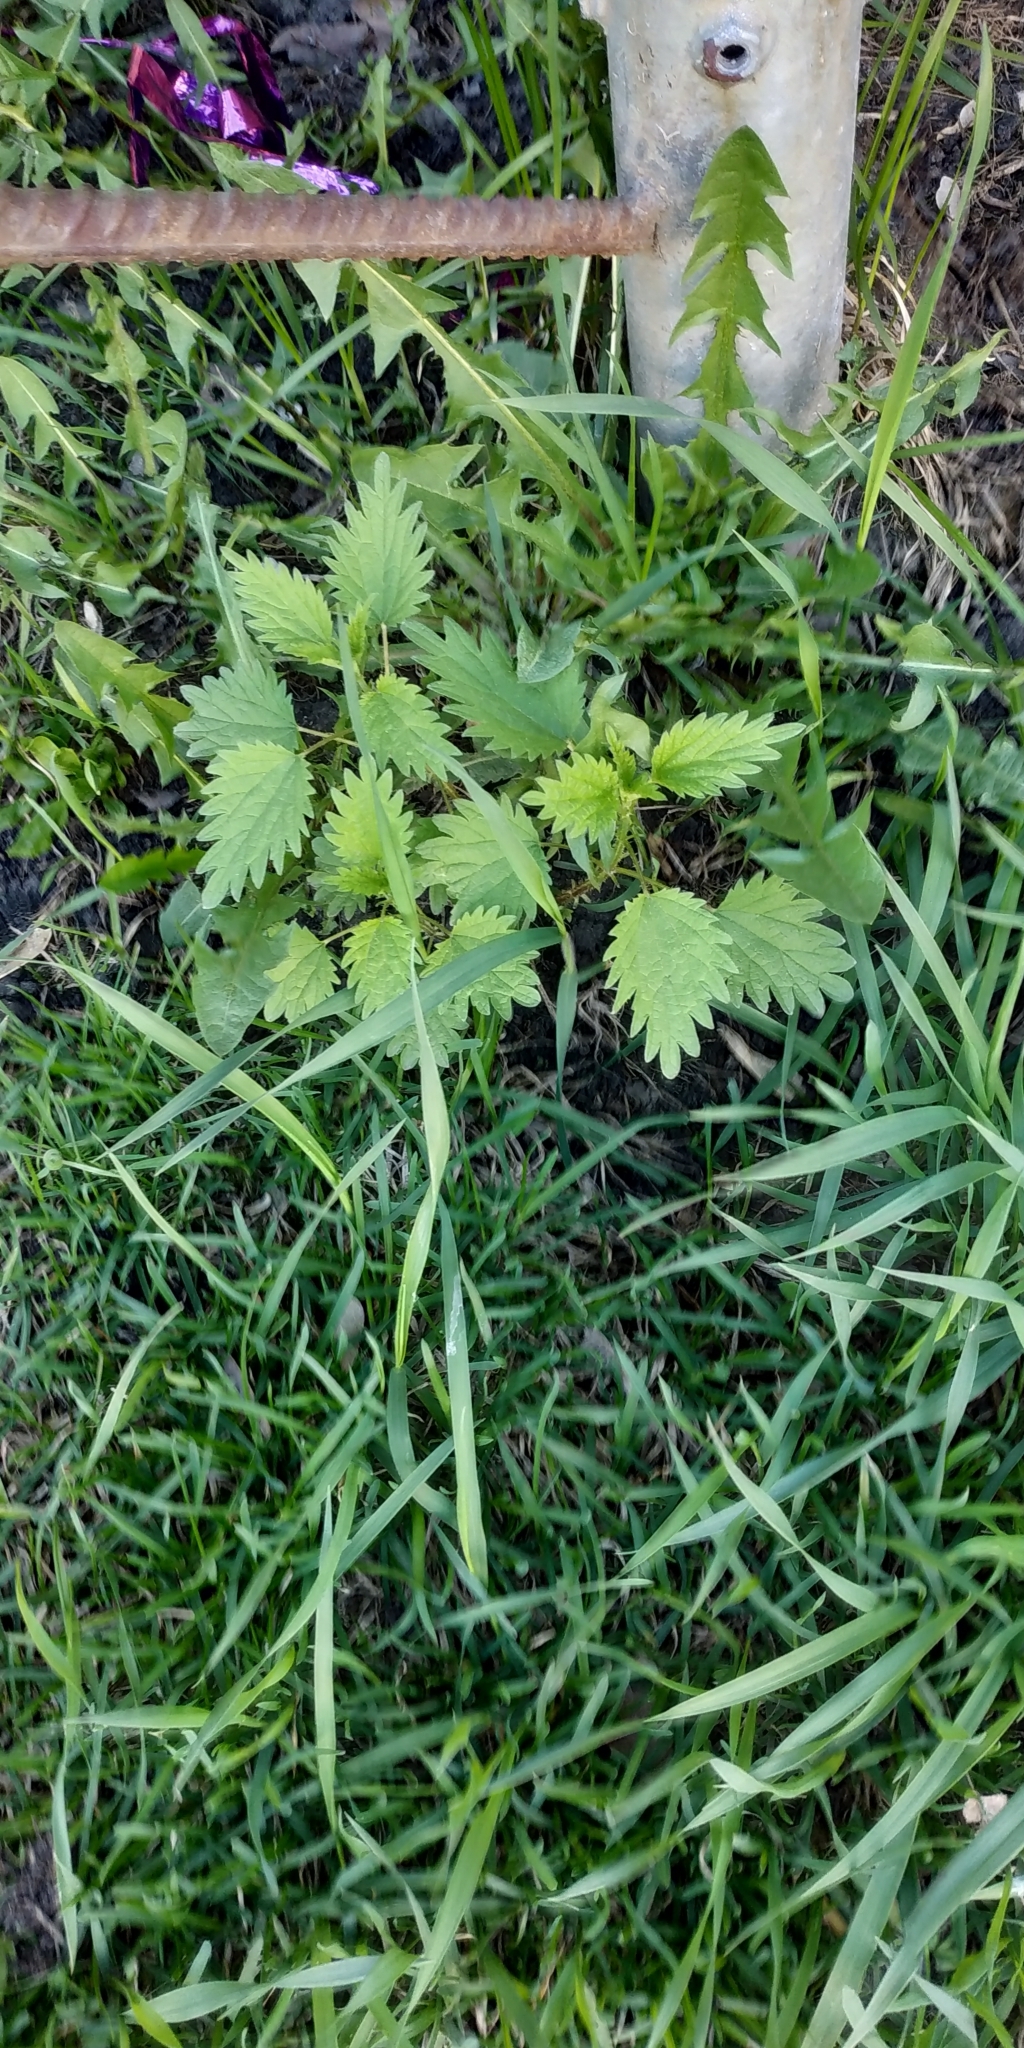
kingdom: Plantae
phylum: Tracheophyta
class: Magnoliopsida
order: Rosales
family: Urticaceae
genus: Urtica
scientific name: Urtica dioica
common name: Common nettle
